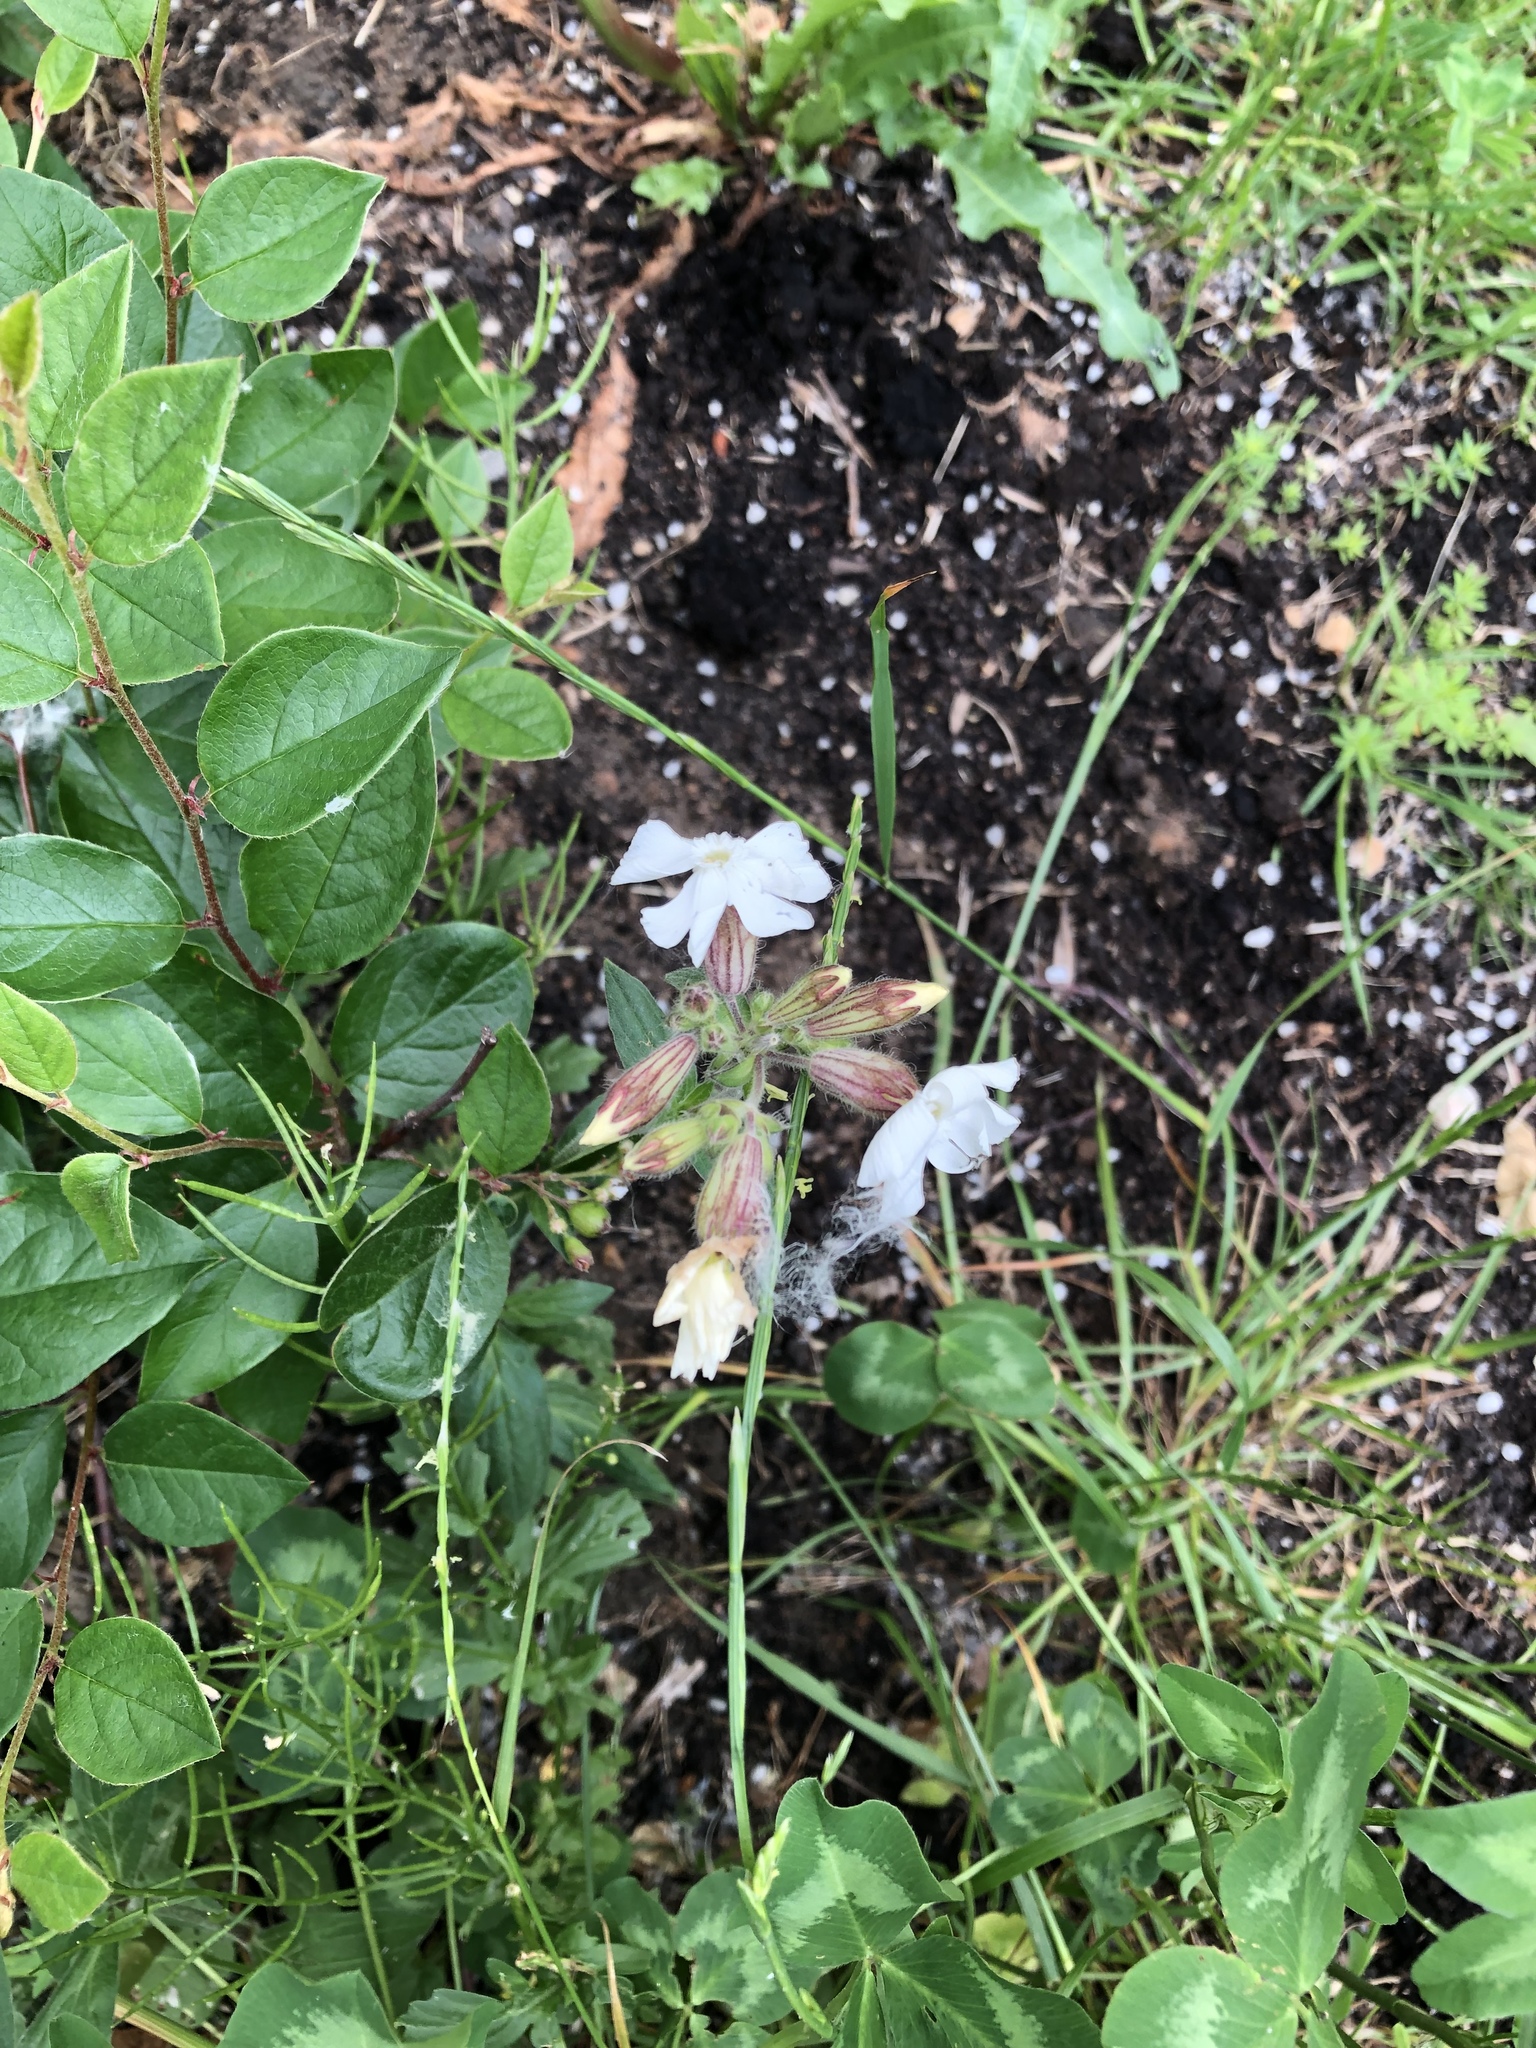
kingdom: Plantae
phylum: Tracheophyta
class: Magnoliopsida
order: Caryophyllales
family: Caryophyllaceae
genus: Silene
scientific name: Silene latifolia
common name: White campion
